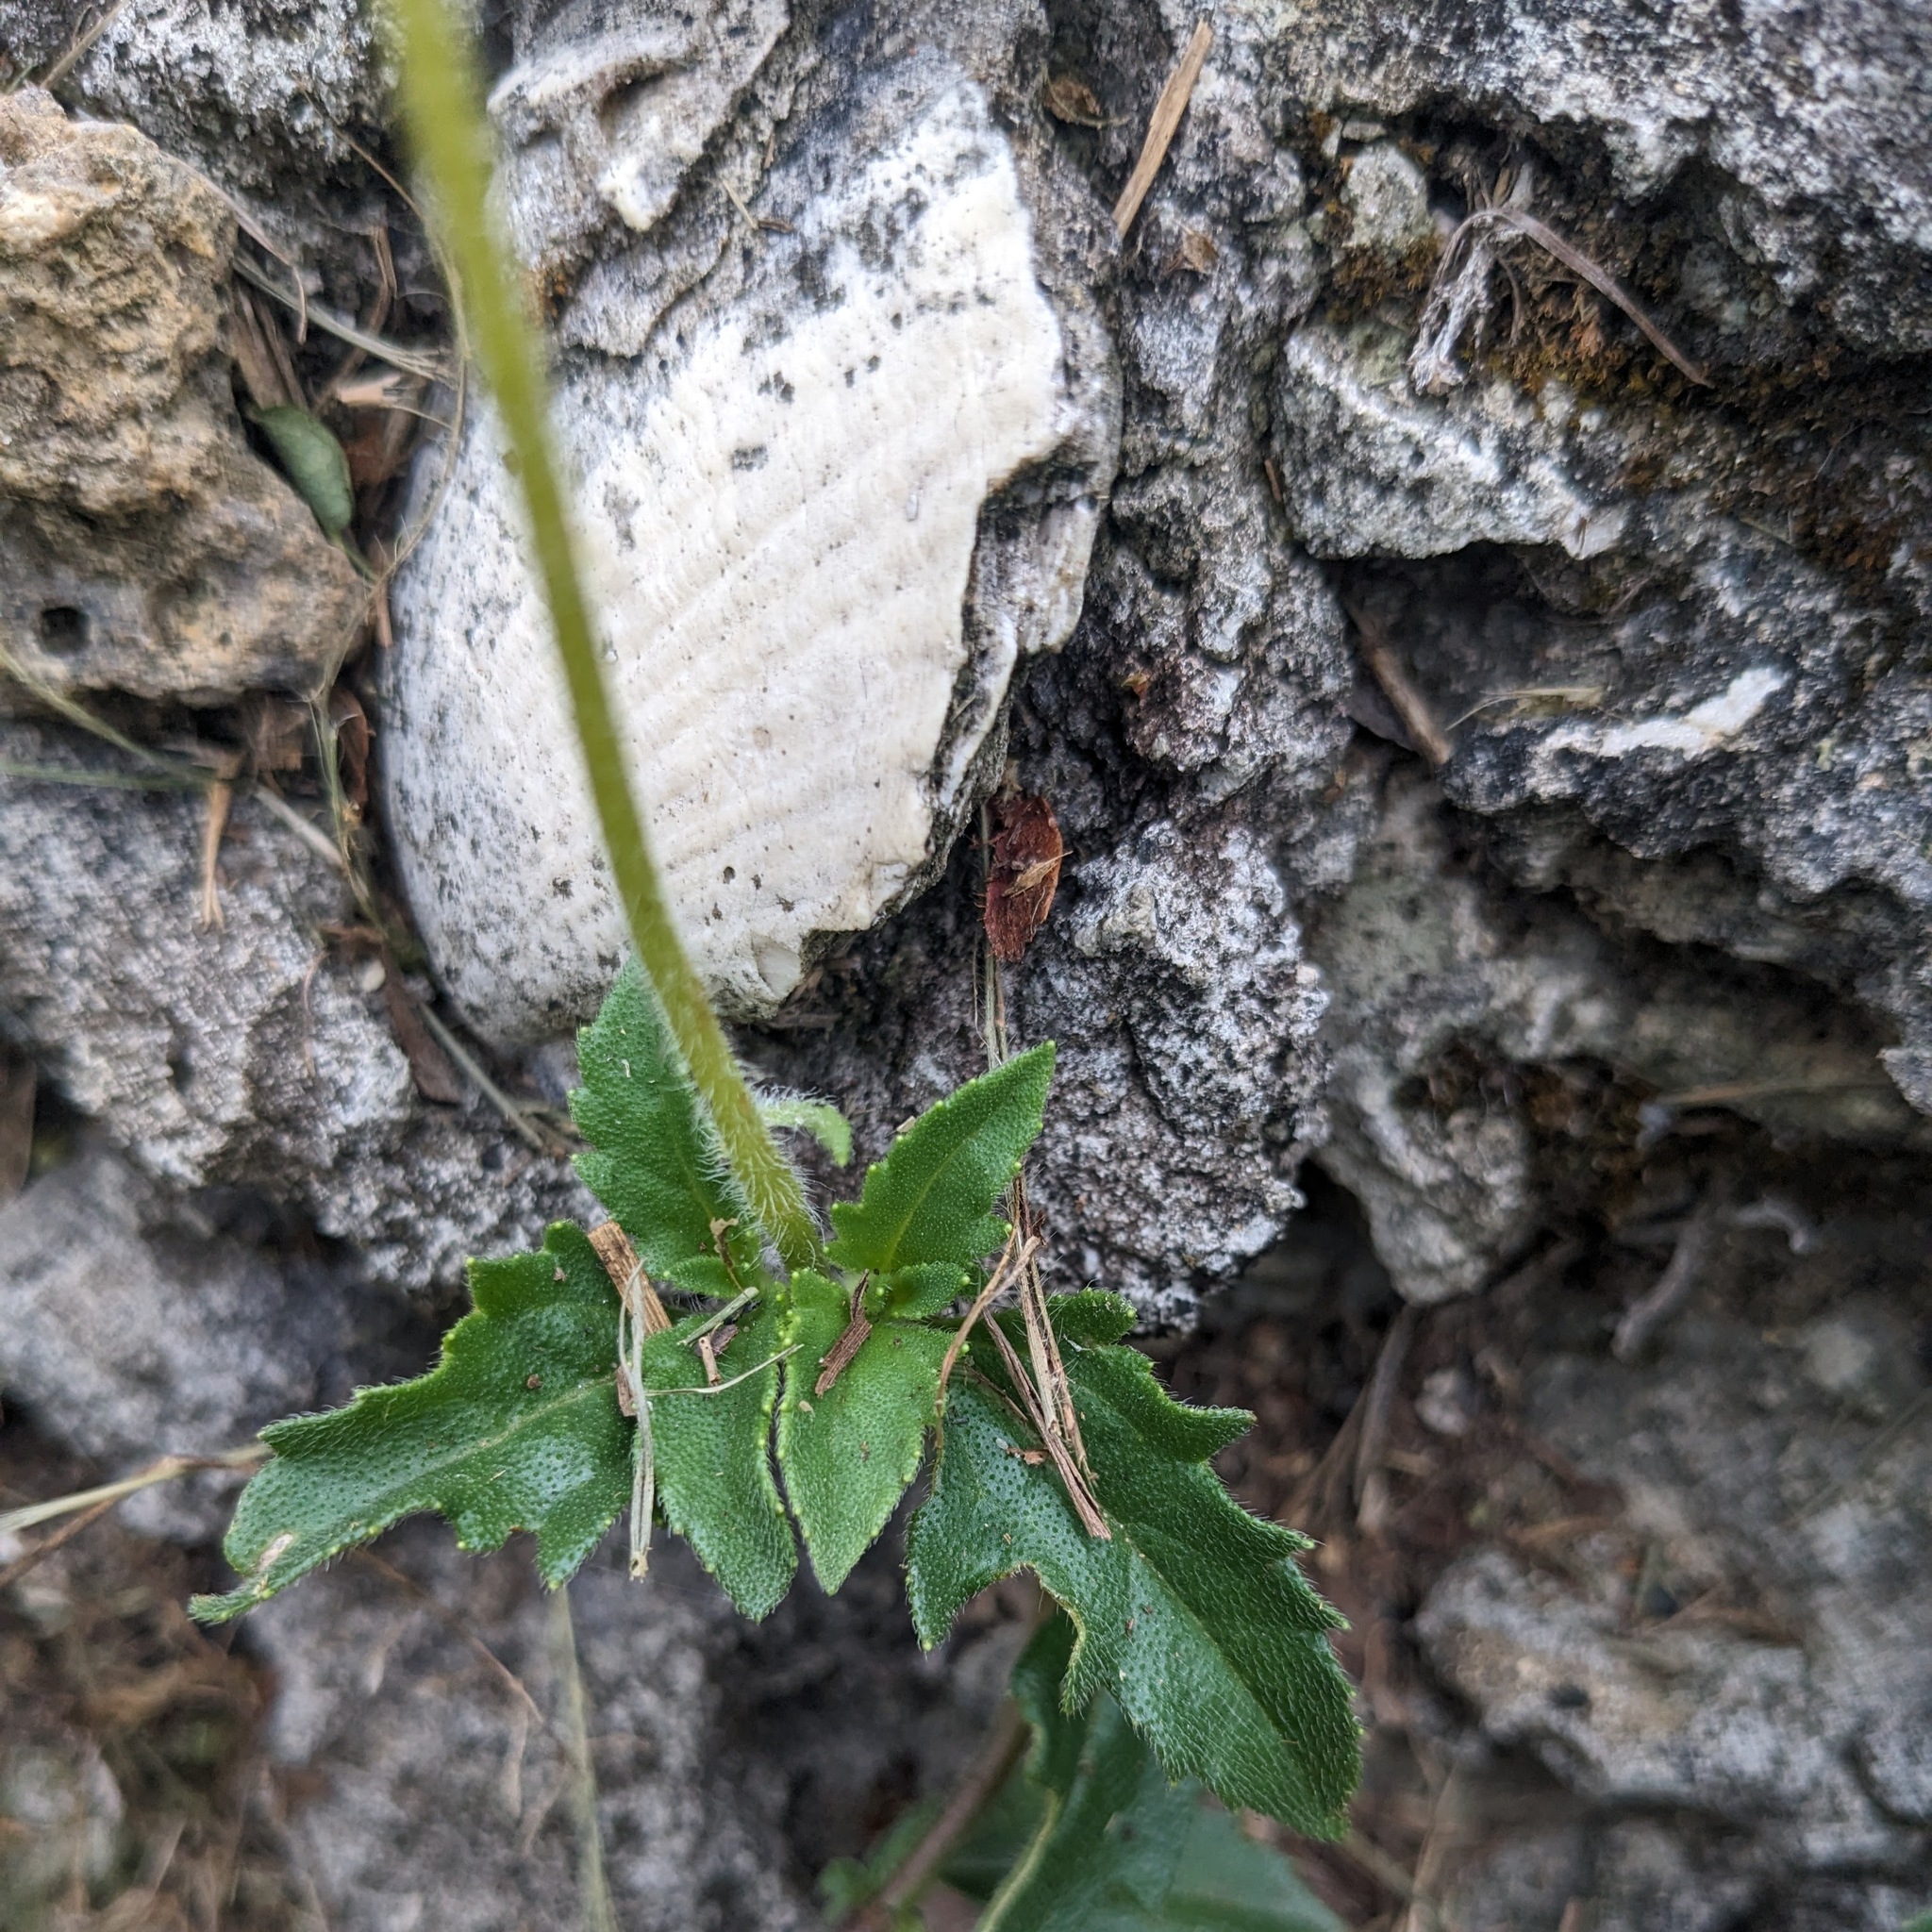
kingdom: Plantae
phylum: Tracheophyta
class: Magnoliopsida
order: Asterales
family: Asteraceae
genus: Tridax
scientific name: Tridax procumbens
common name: Coatbuttons
